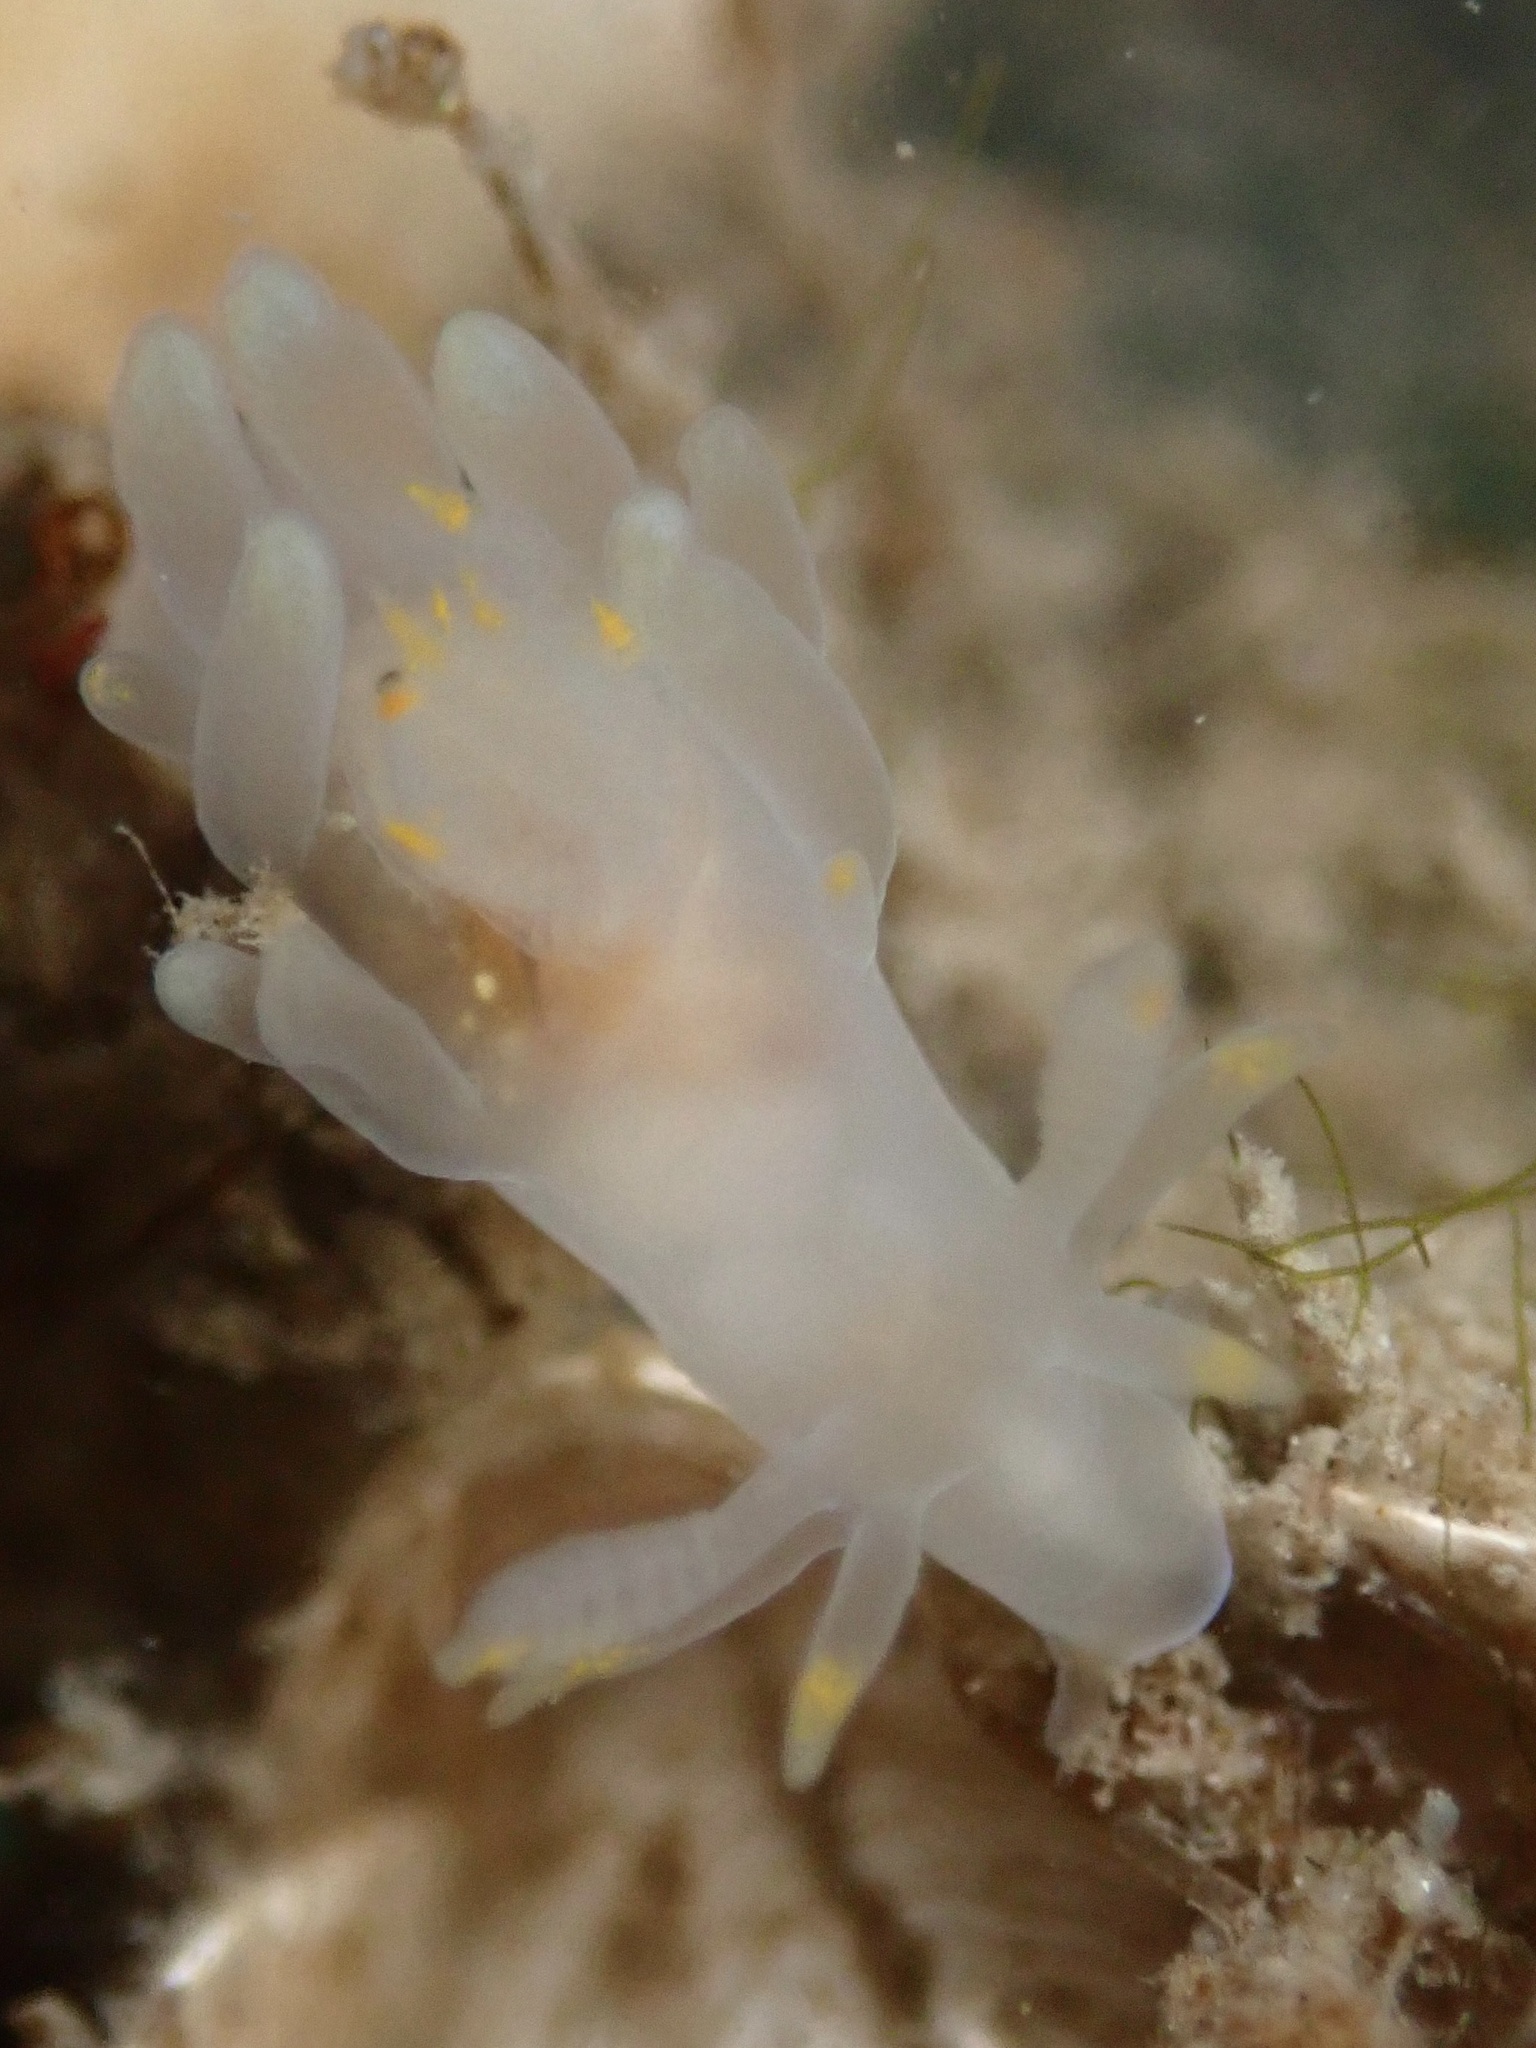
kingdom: Animalia
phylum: Mollusca
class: Gastropoda
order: Nudibranchia
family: Goniodorididae
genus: Ancula
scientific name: Ancula gibbosa
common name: Atlantic ancula
